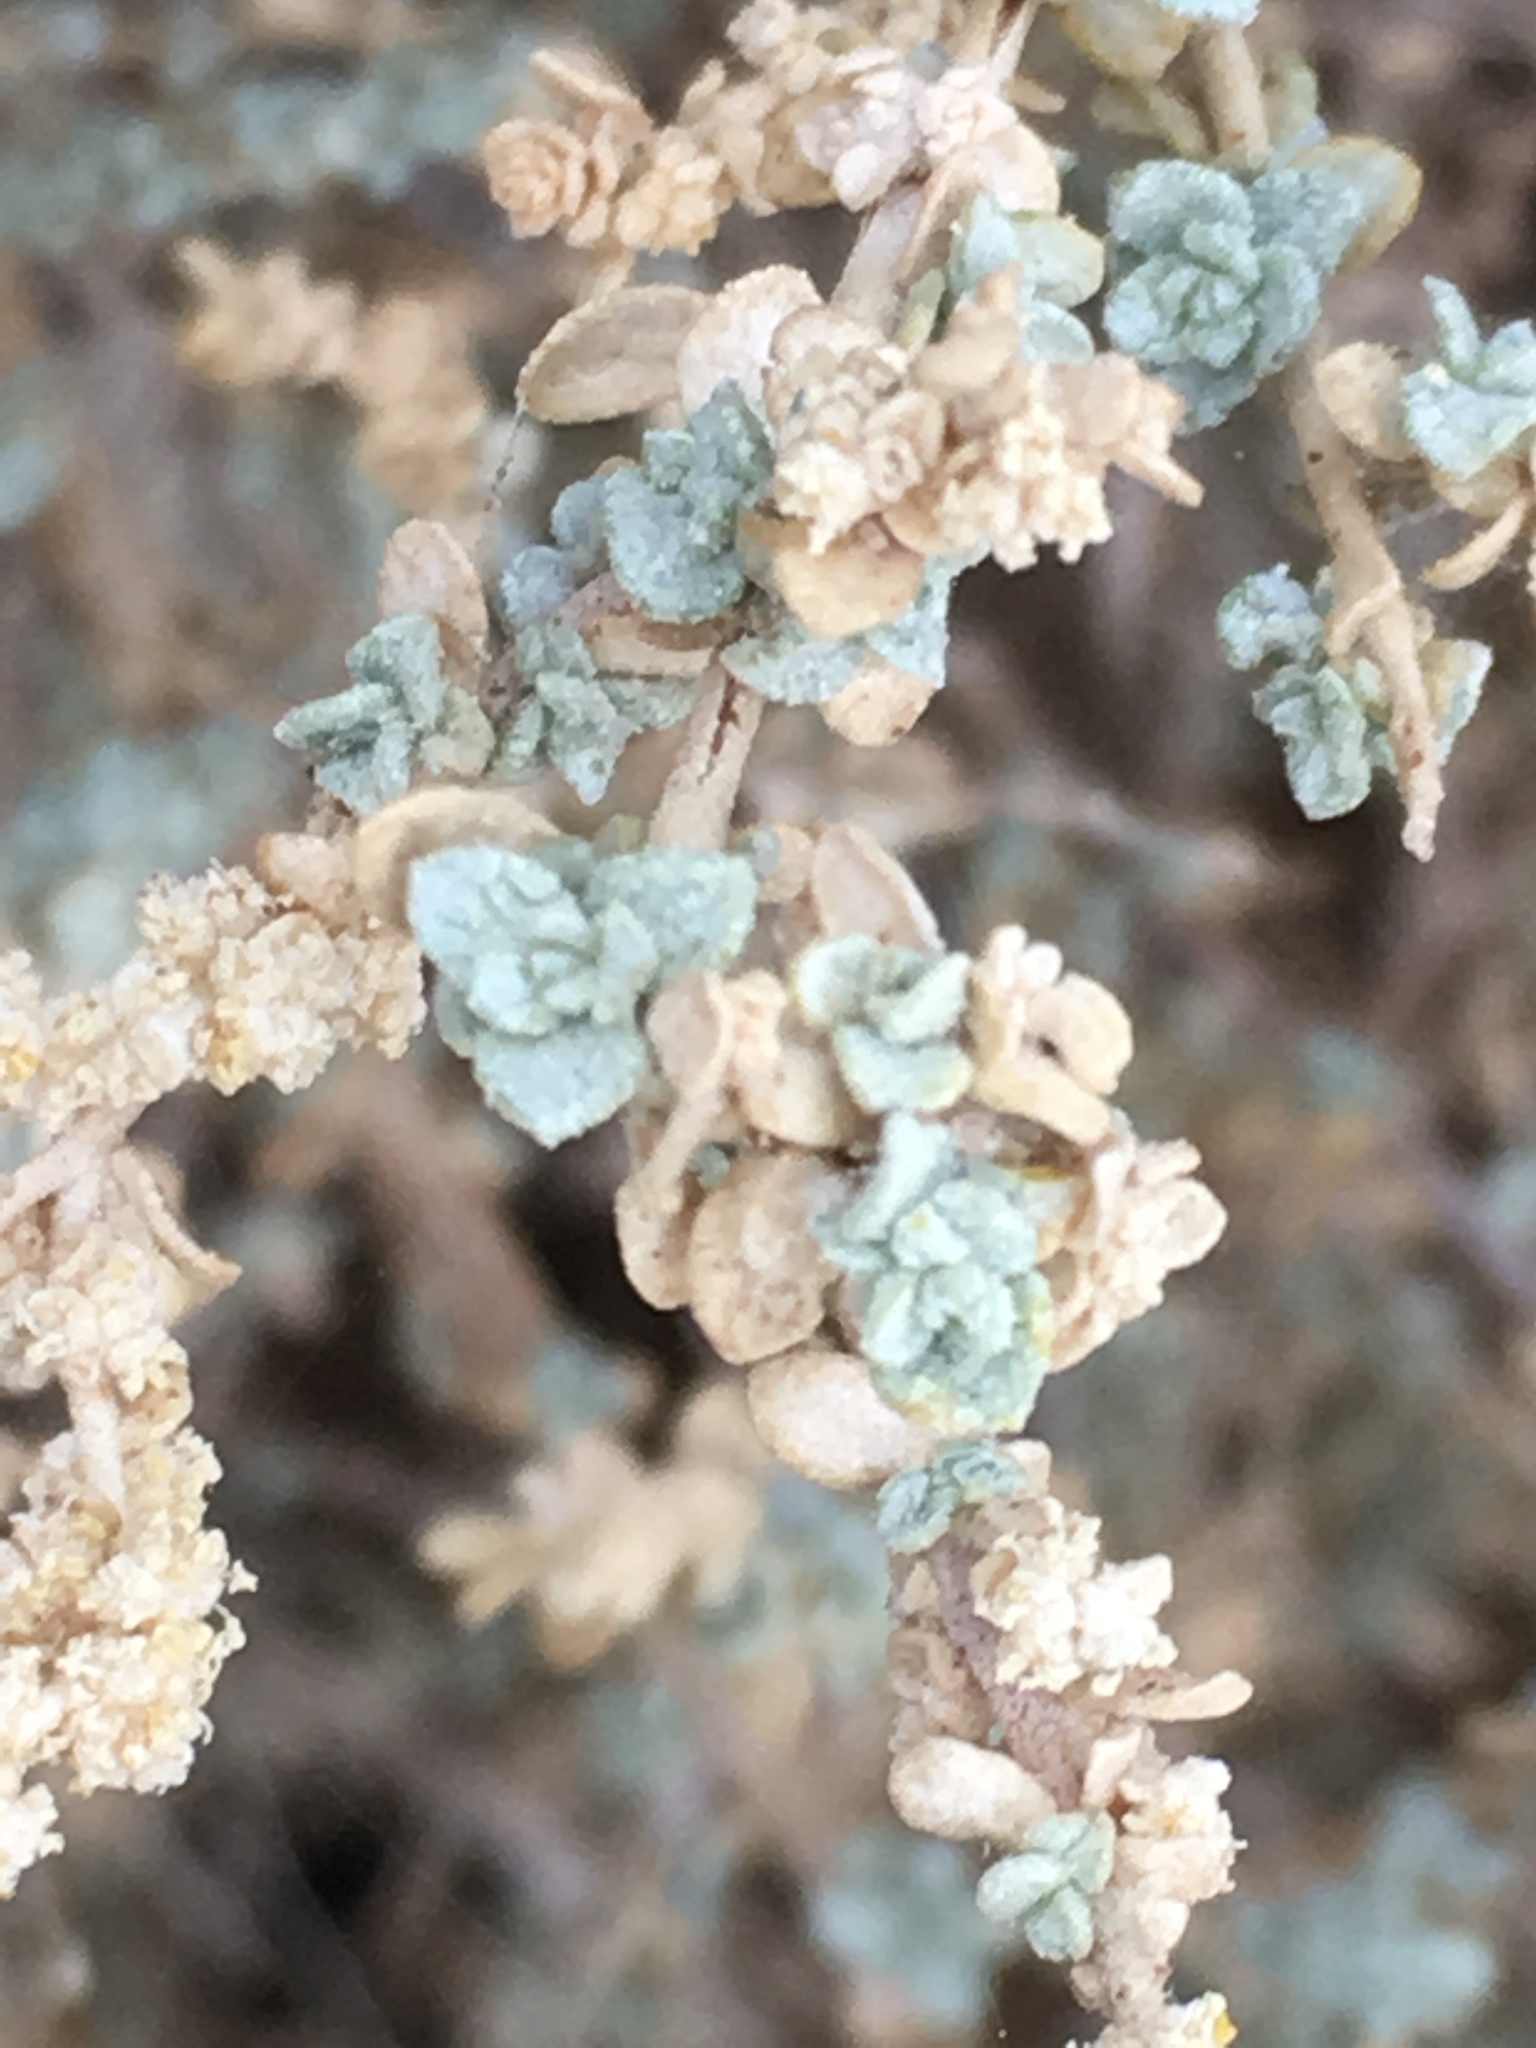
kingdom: Plantae
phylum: Tracheophyta
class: Magnoliopsida
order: Caryophyllales
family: Amaranthaceae
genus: Atriplex
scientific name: Atriplex polycarpa
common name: Desert saltbush
